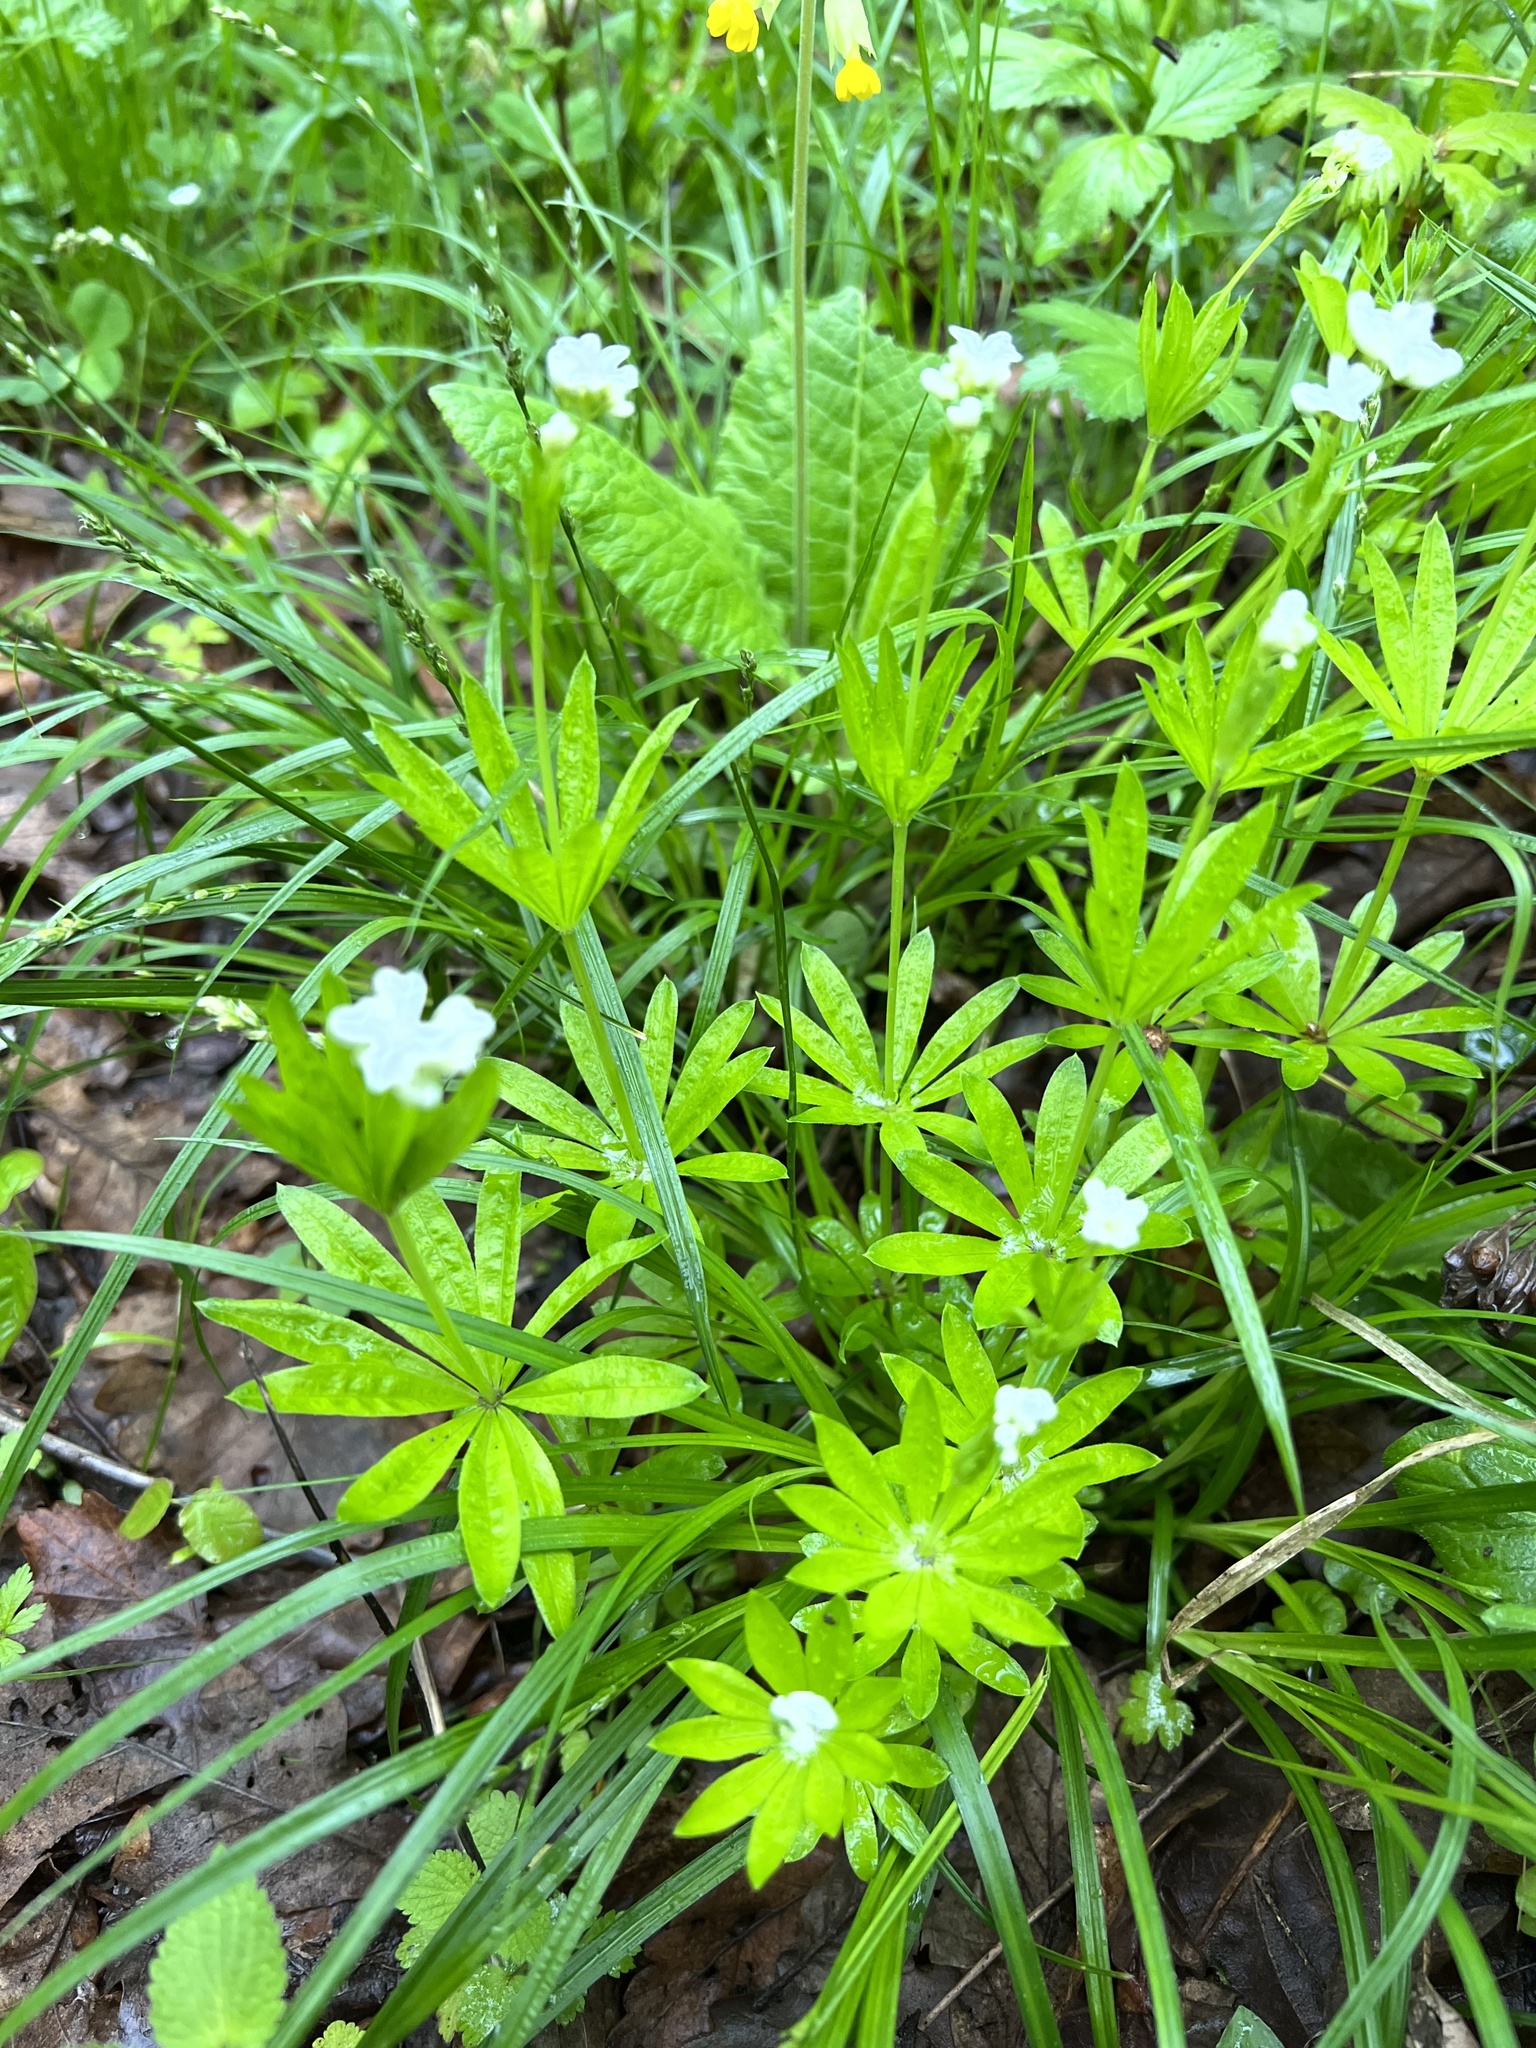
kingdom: Plantae
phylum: Tracheophyta
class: Magnoliopsida
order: Gentianales
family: Rubiaceae
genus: Galium
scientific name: Galium odoratum
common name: Sweet woodruff
